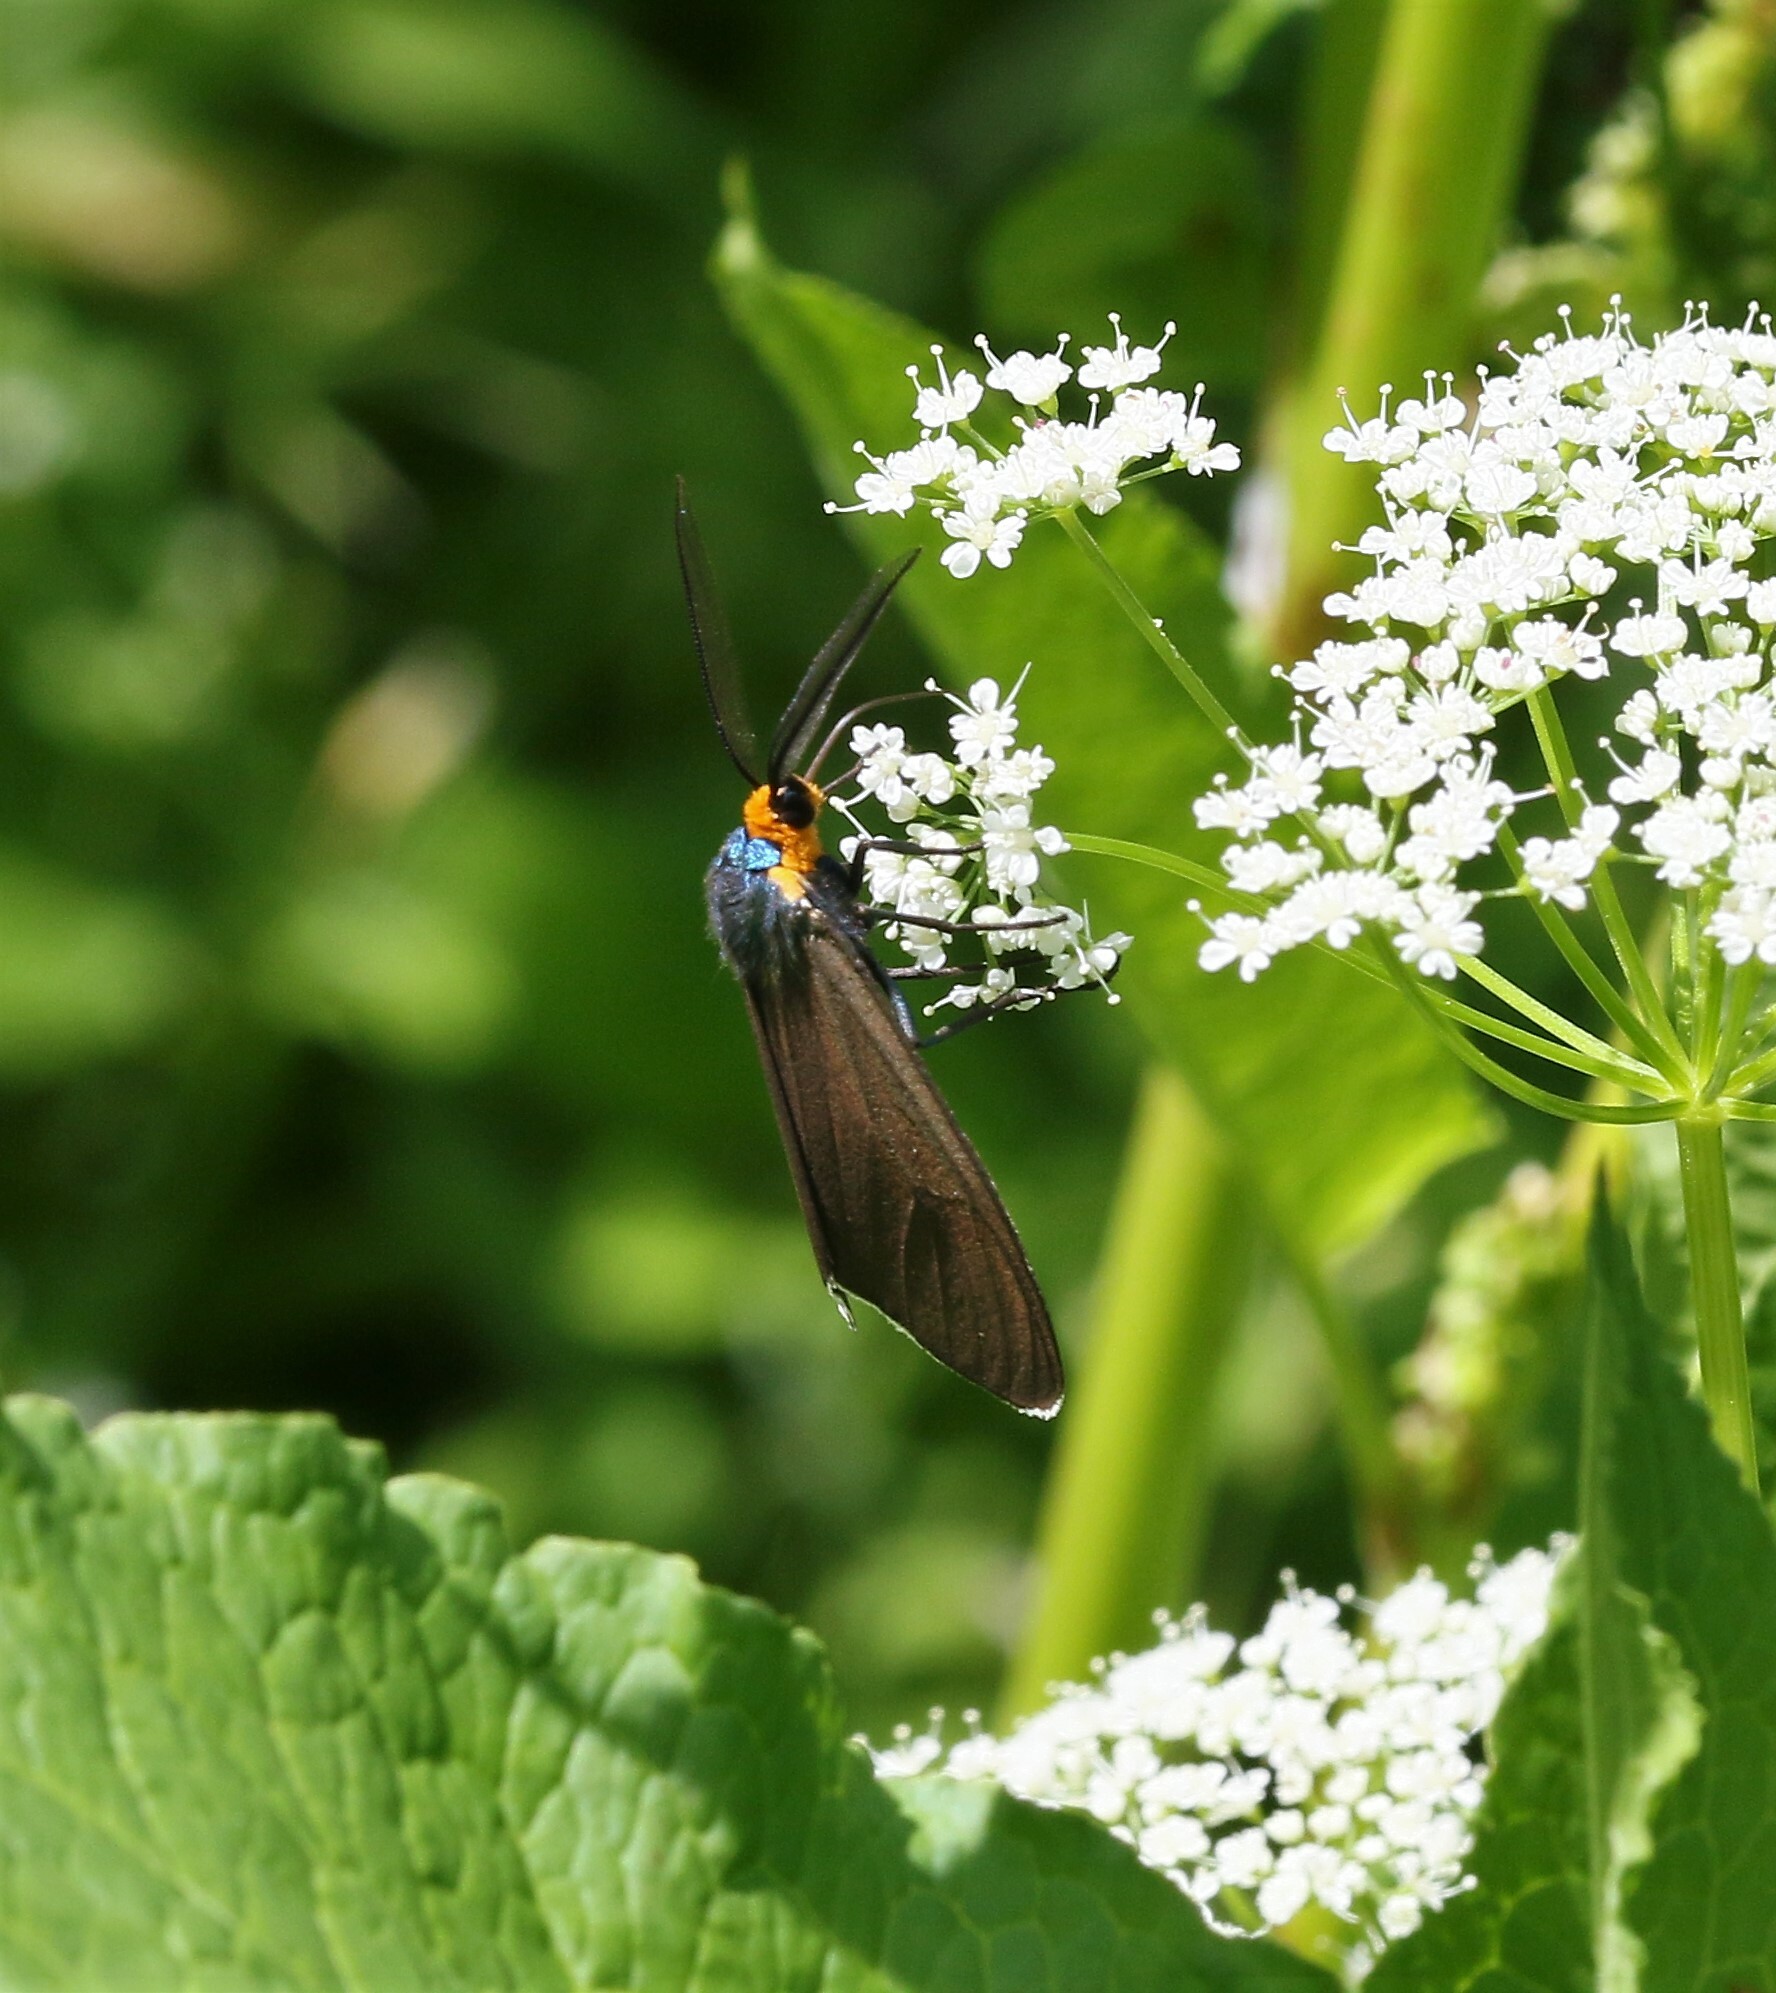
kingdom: Animalia
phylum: Arthropoda
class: Insecta
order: Lepidoptera
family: Erebidae
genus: Ctenucha
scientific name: Ctenucha virginica
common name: Virginia ctenucha moth
